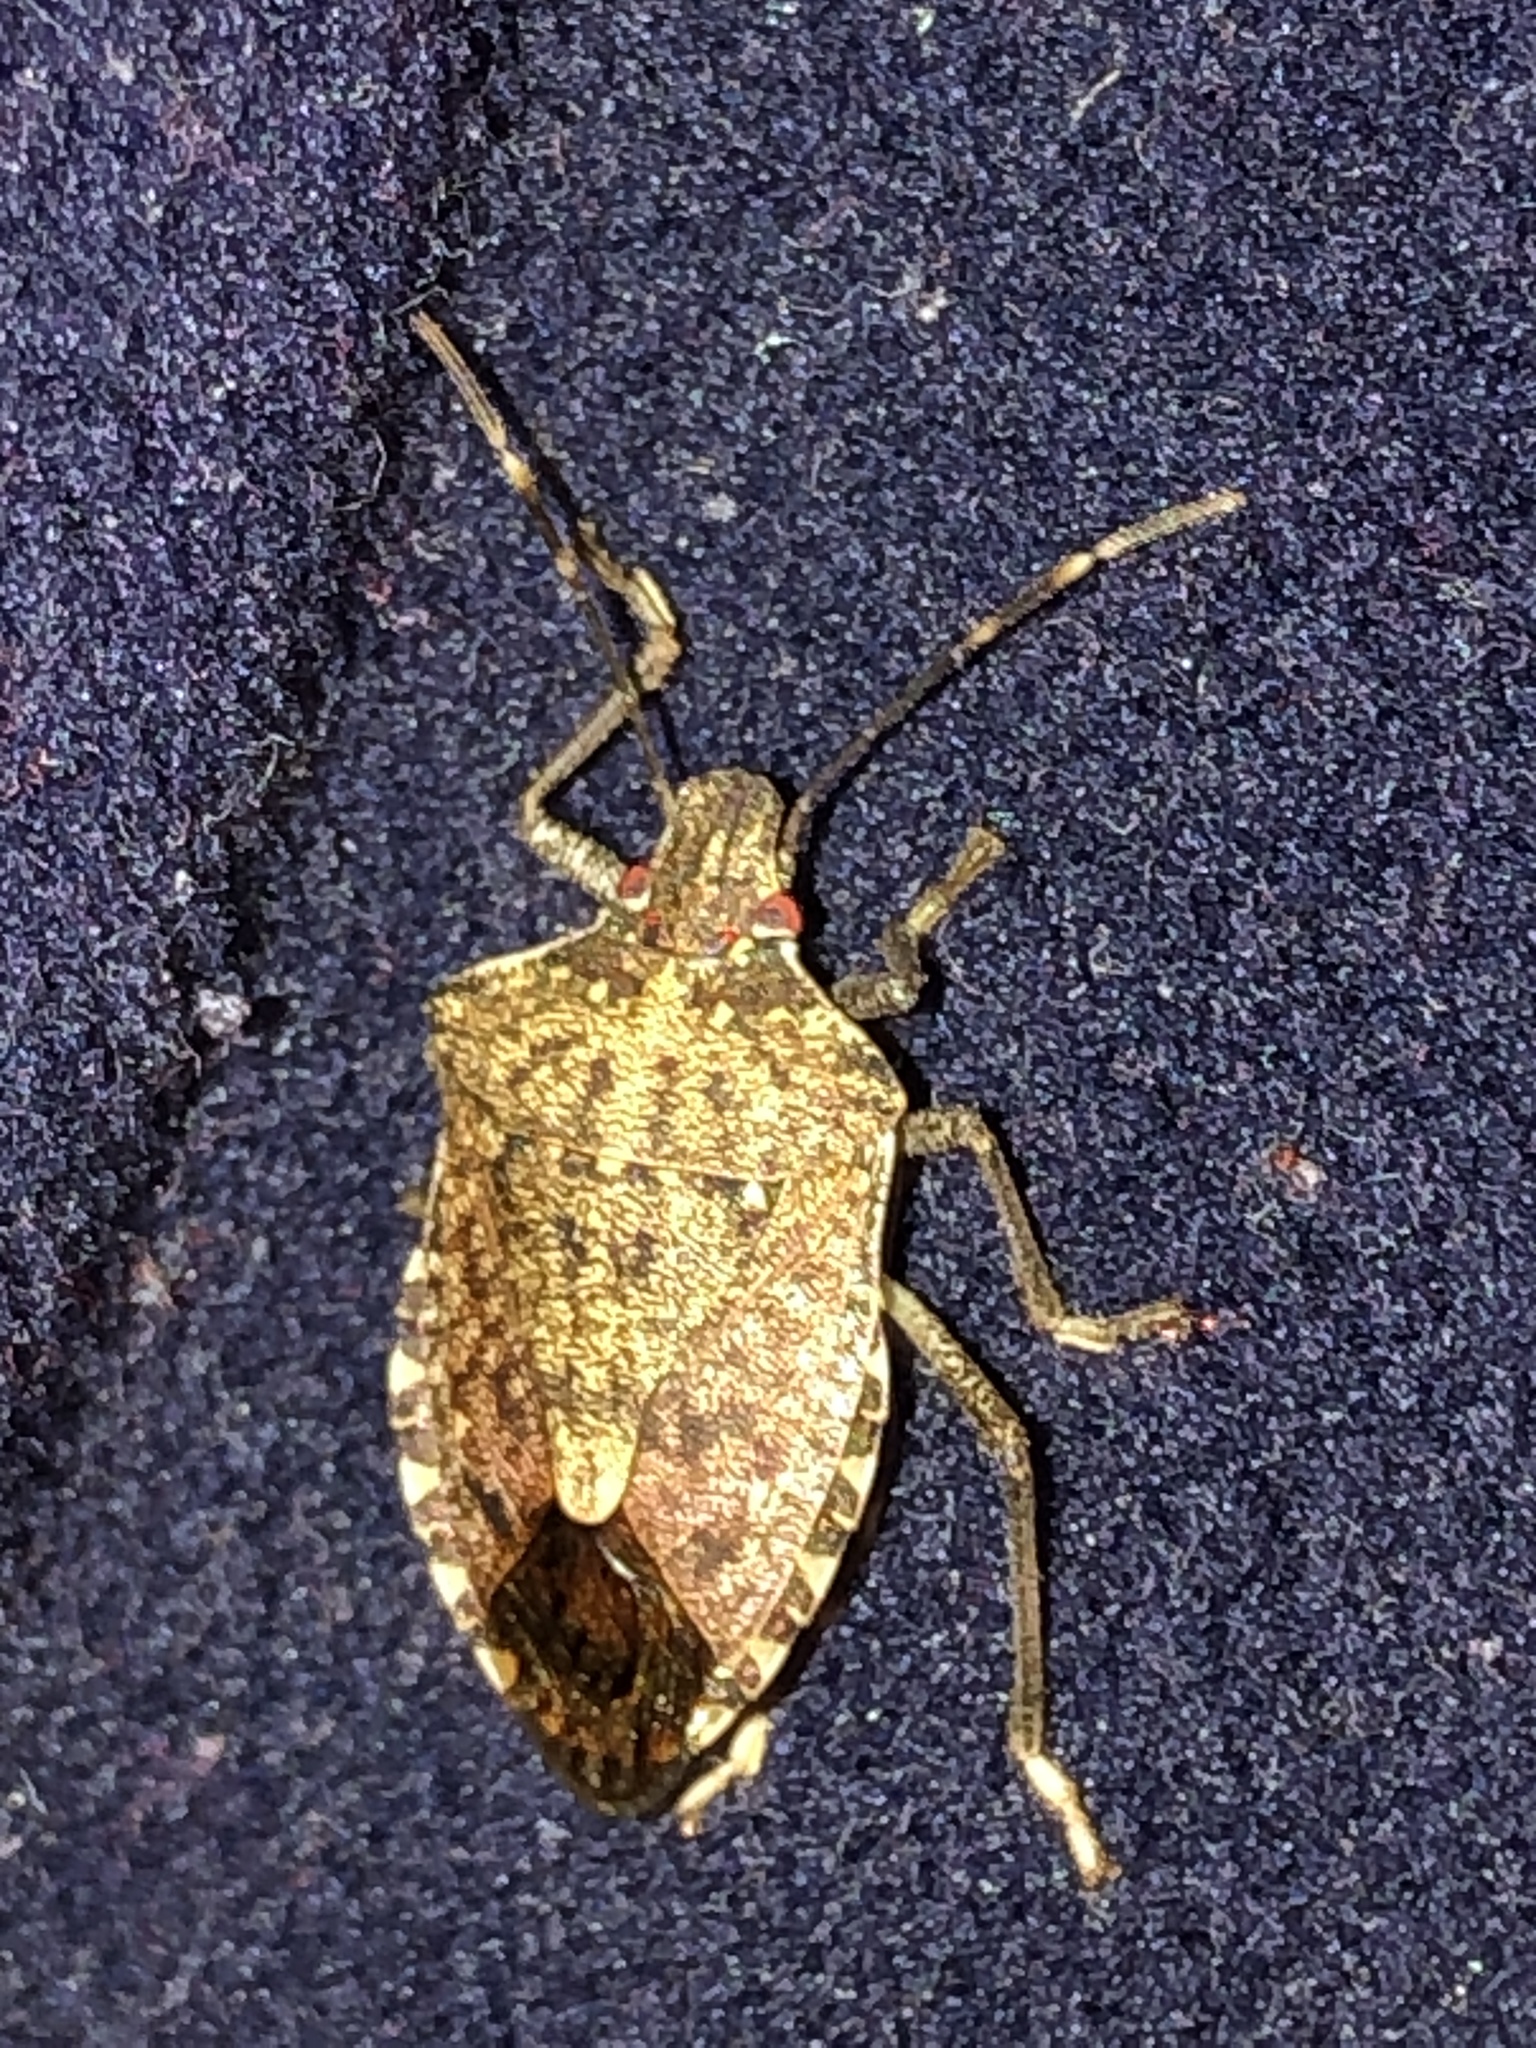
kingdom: Animalia
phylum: Arthropoda
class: Insecta
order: Hemiptera
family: Pentatomidae
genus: Halyomorpha
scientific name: Halyomorpha halys
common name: Brown marmorated stink bug
